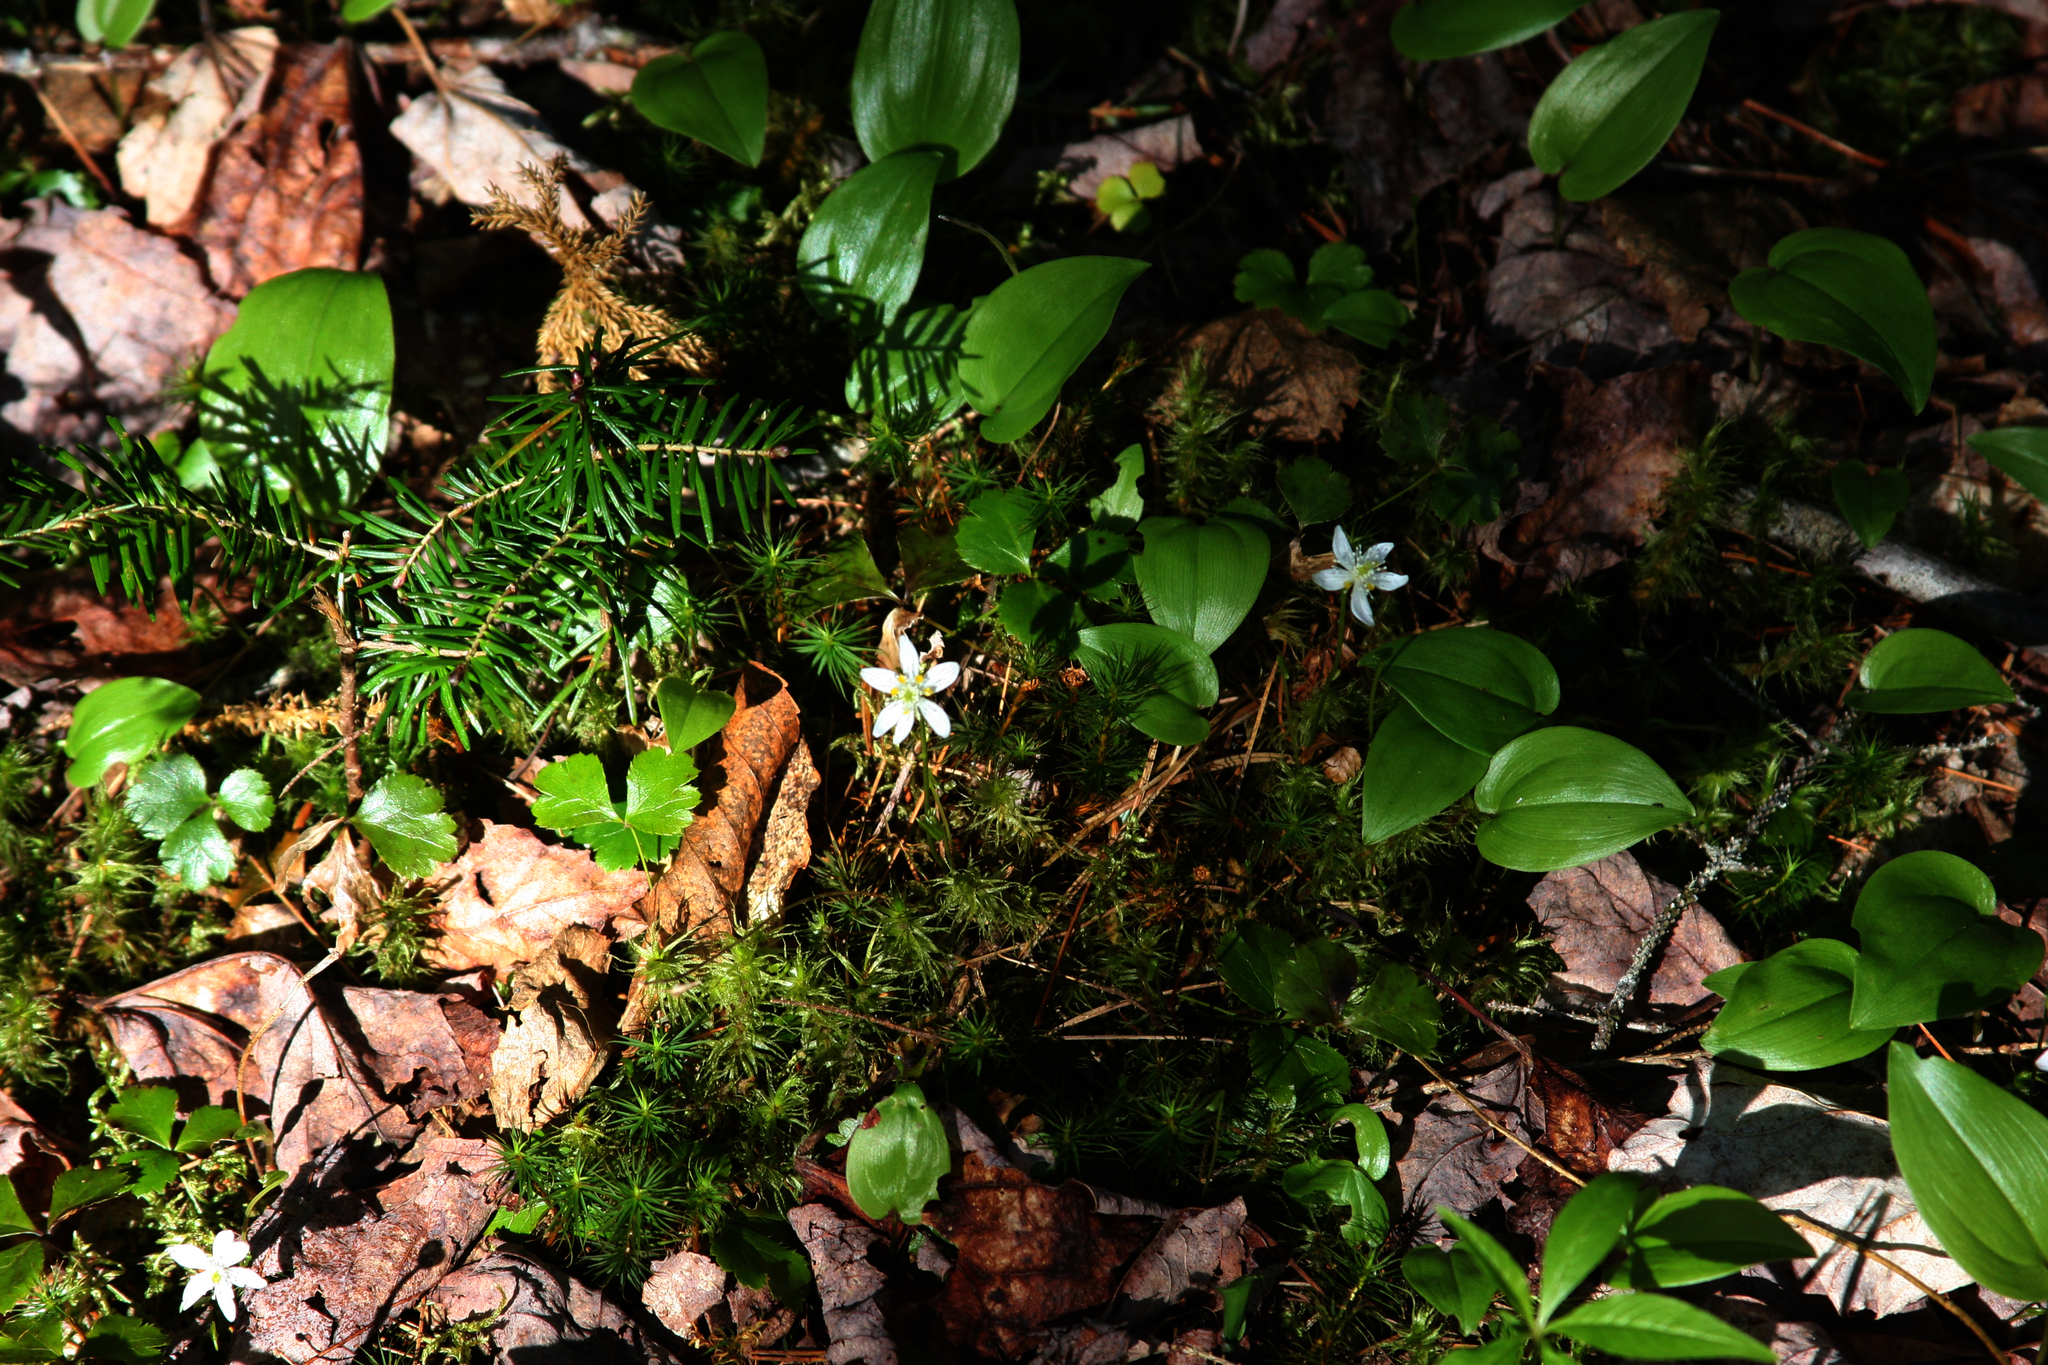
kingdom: Plantae
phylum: Tracheophyta
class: Magnoliopsida
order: Ranunculales
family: Ranunculaceae
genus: Coptis
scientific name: Coptis trifolia
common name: Canker-root
